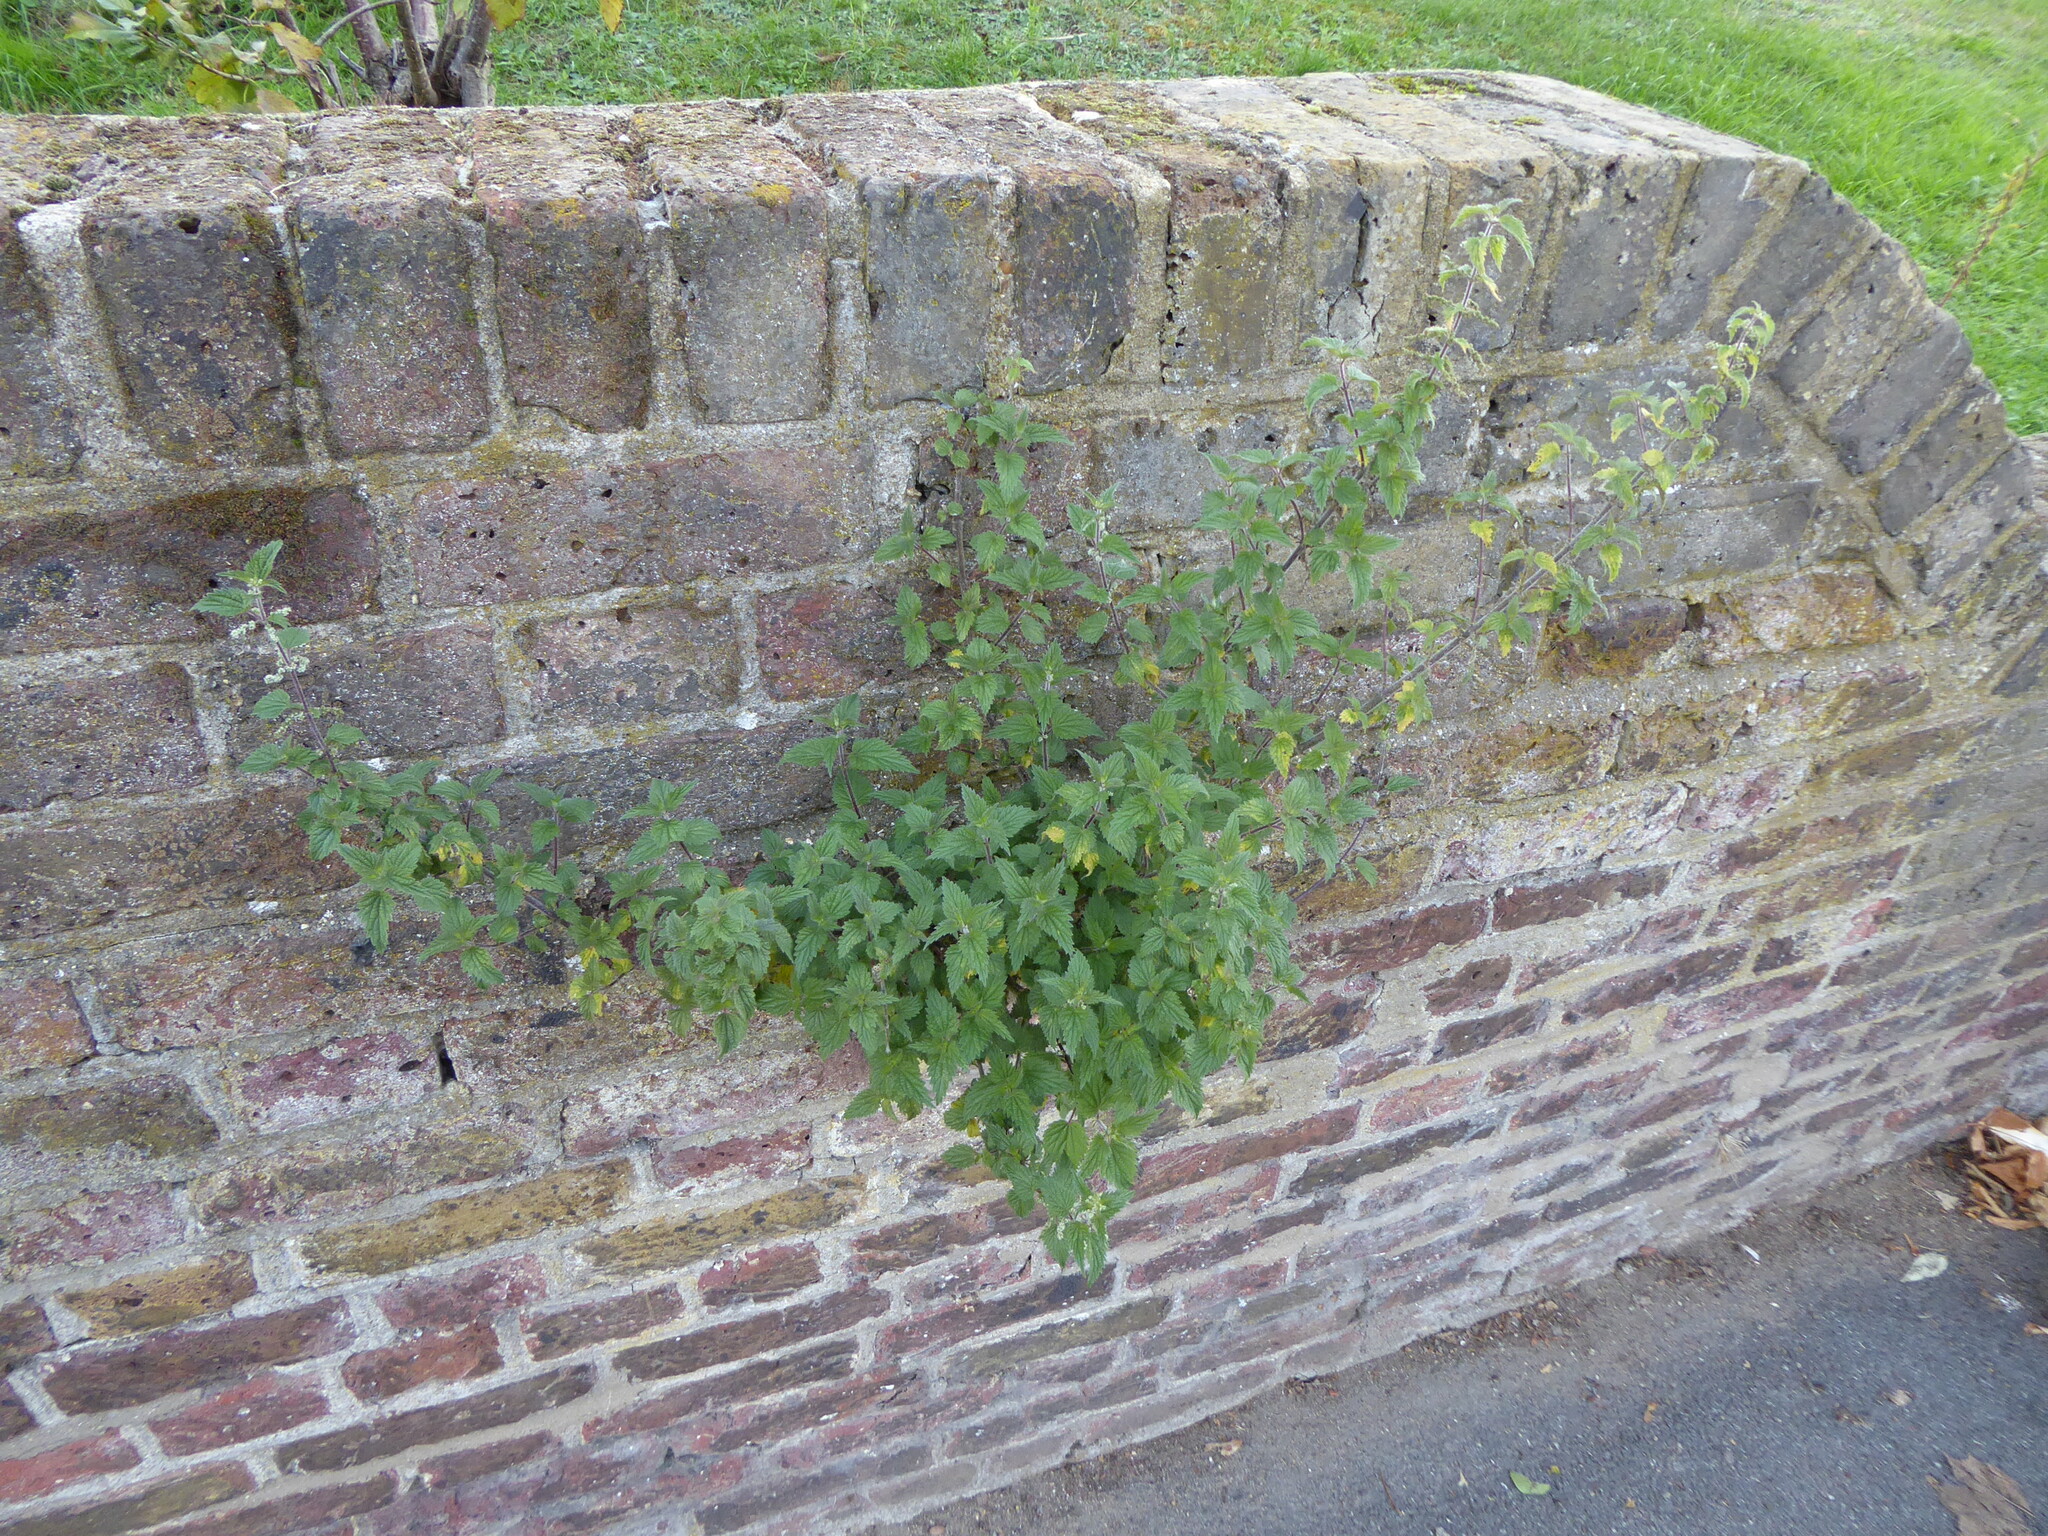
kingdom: Plantae
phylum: Tracheophyta
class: Magnoliopsida
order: Rosales
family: Urticaceae
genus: Urtica
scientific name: Urtica dioica
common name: Common nettle
